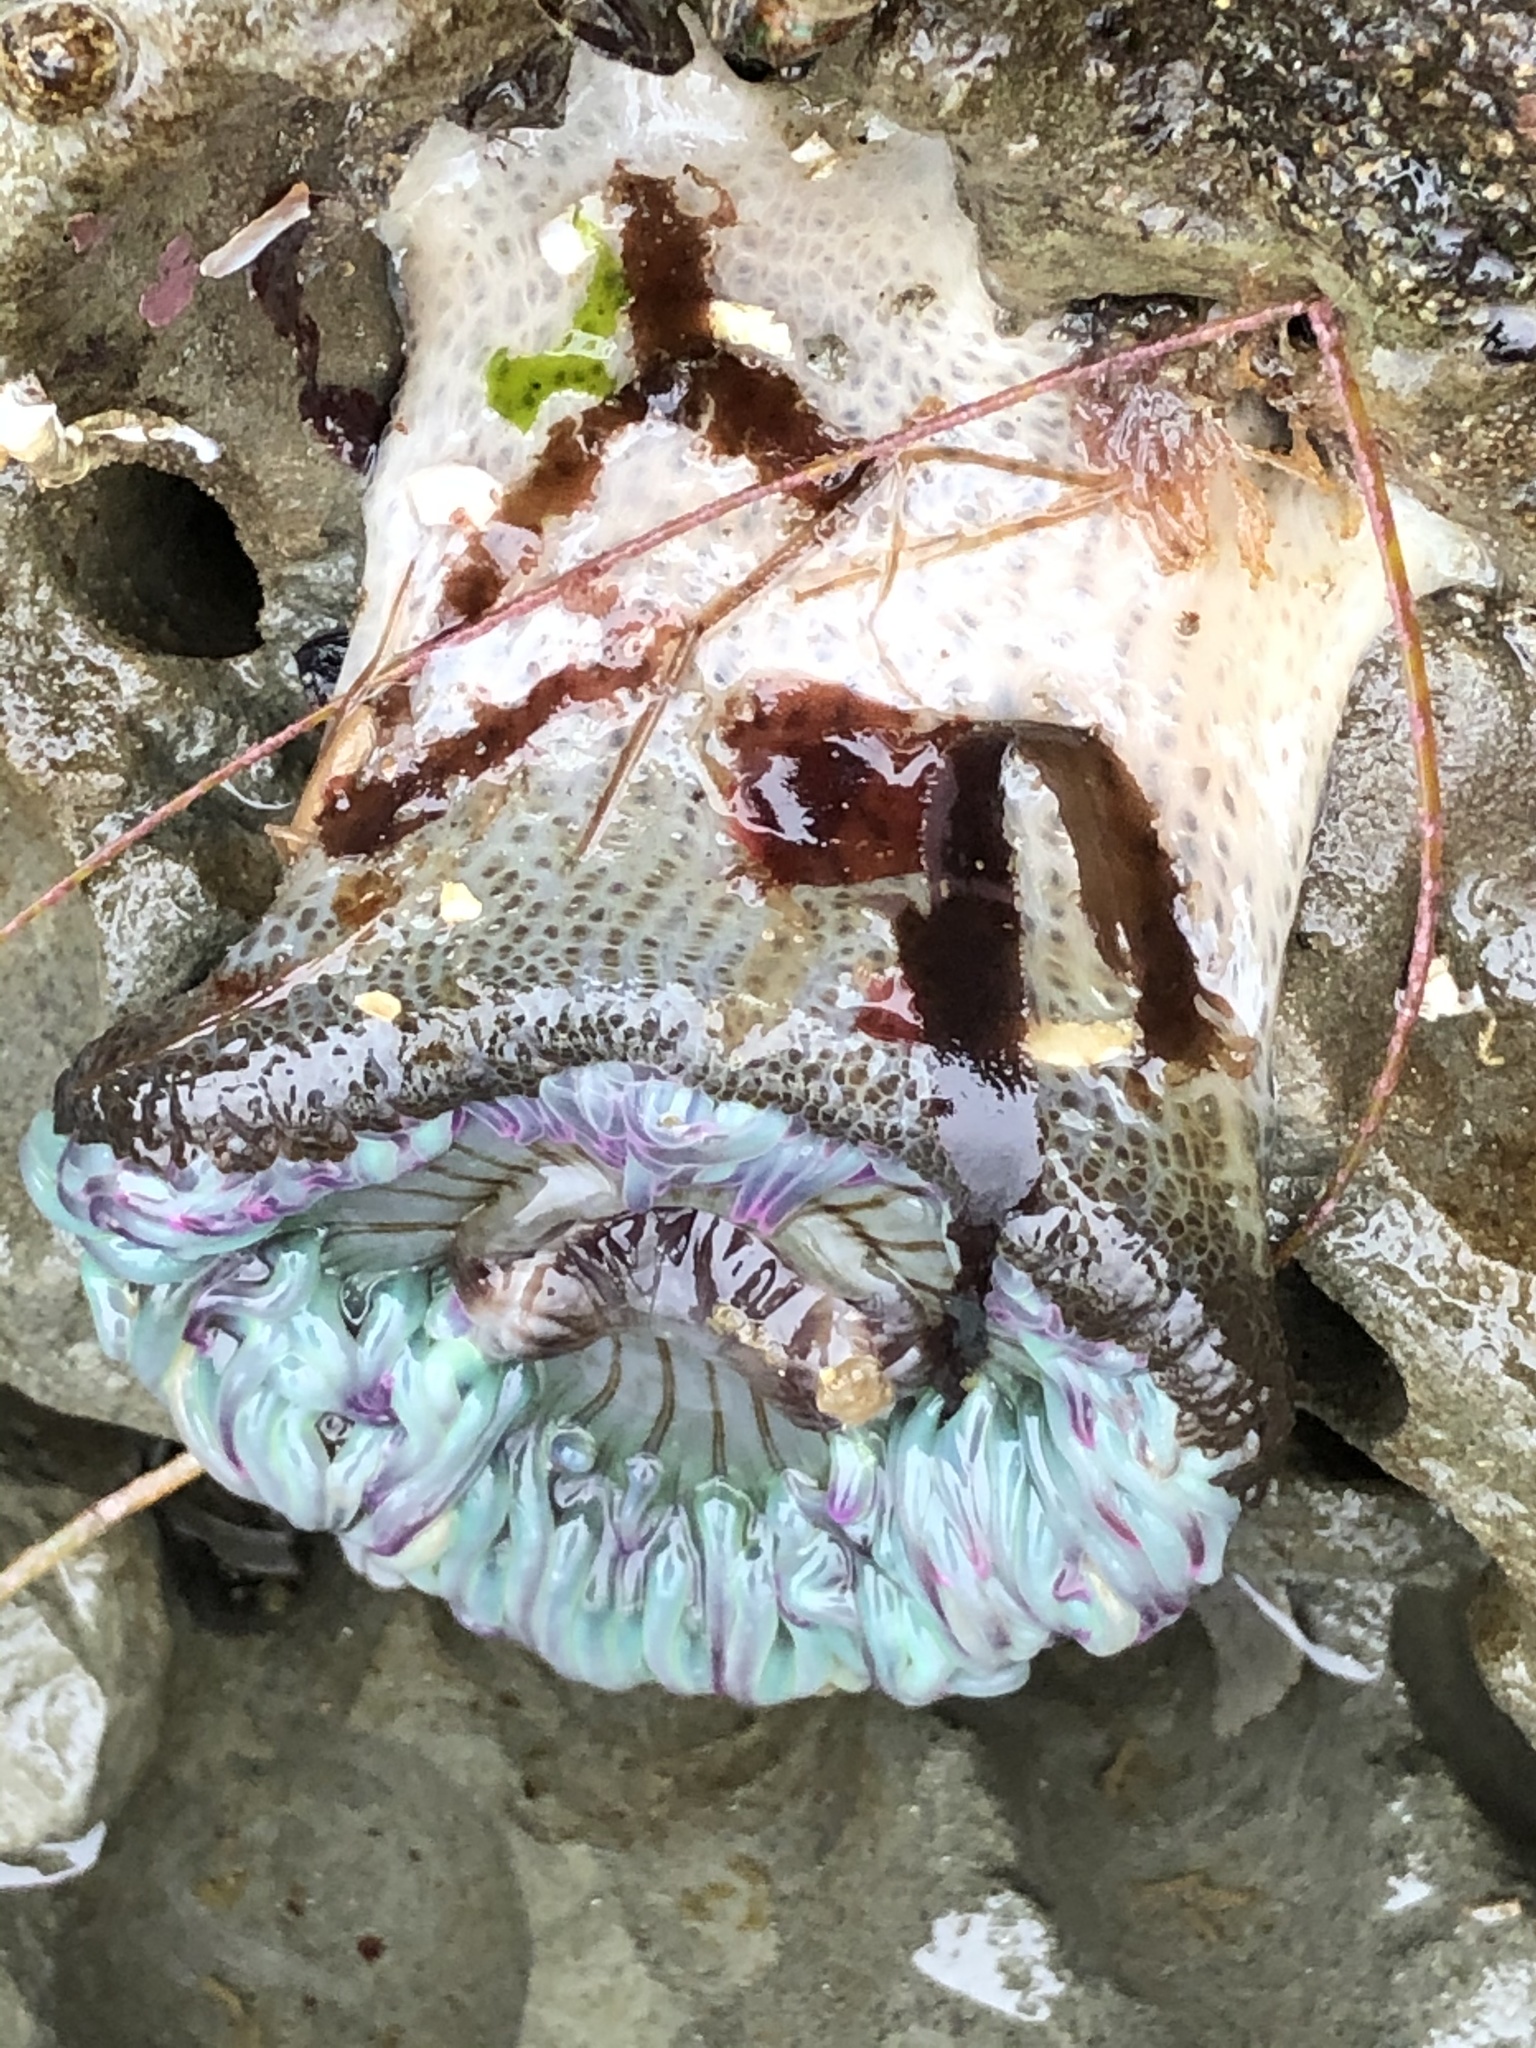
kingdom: Animalia
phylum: Cnidaria
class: Anthozoa
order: Actiniaria
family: Actiniidae
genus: Anthopleura
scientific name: Anthopleura sola
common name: Sun anemone
